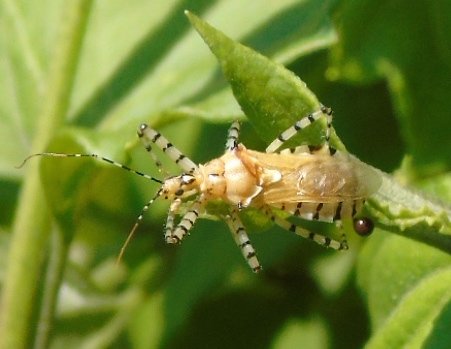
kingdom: Animalia
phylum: Arthropoda
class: Insecta
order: Hemiptera
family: Reduviidae
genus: Pselliopus
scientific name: Pselliopus
